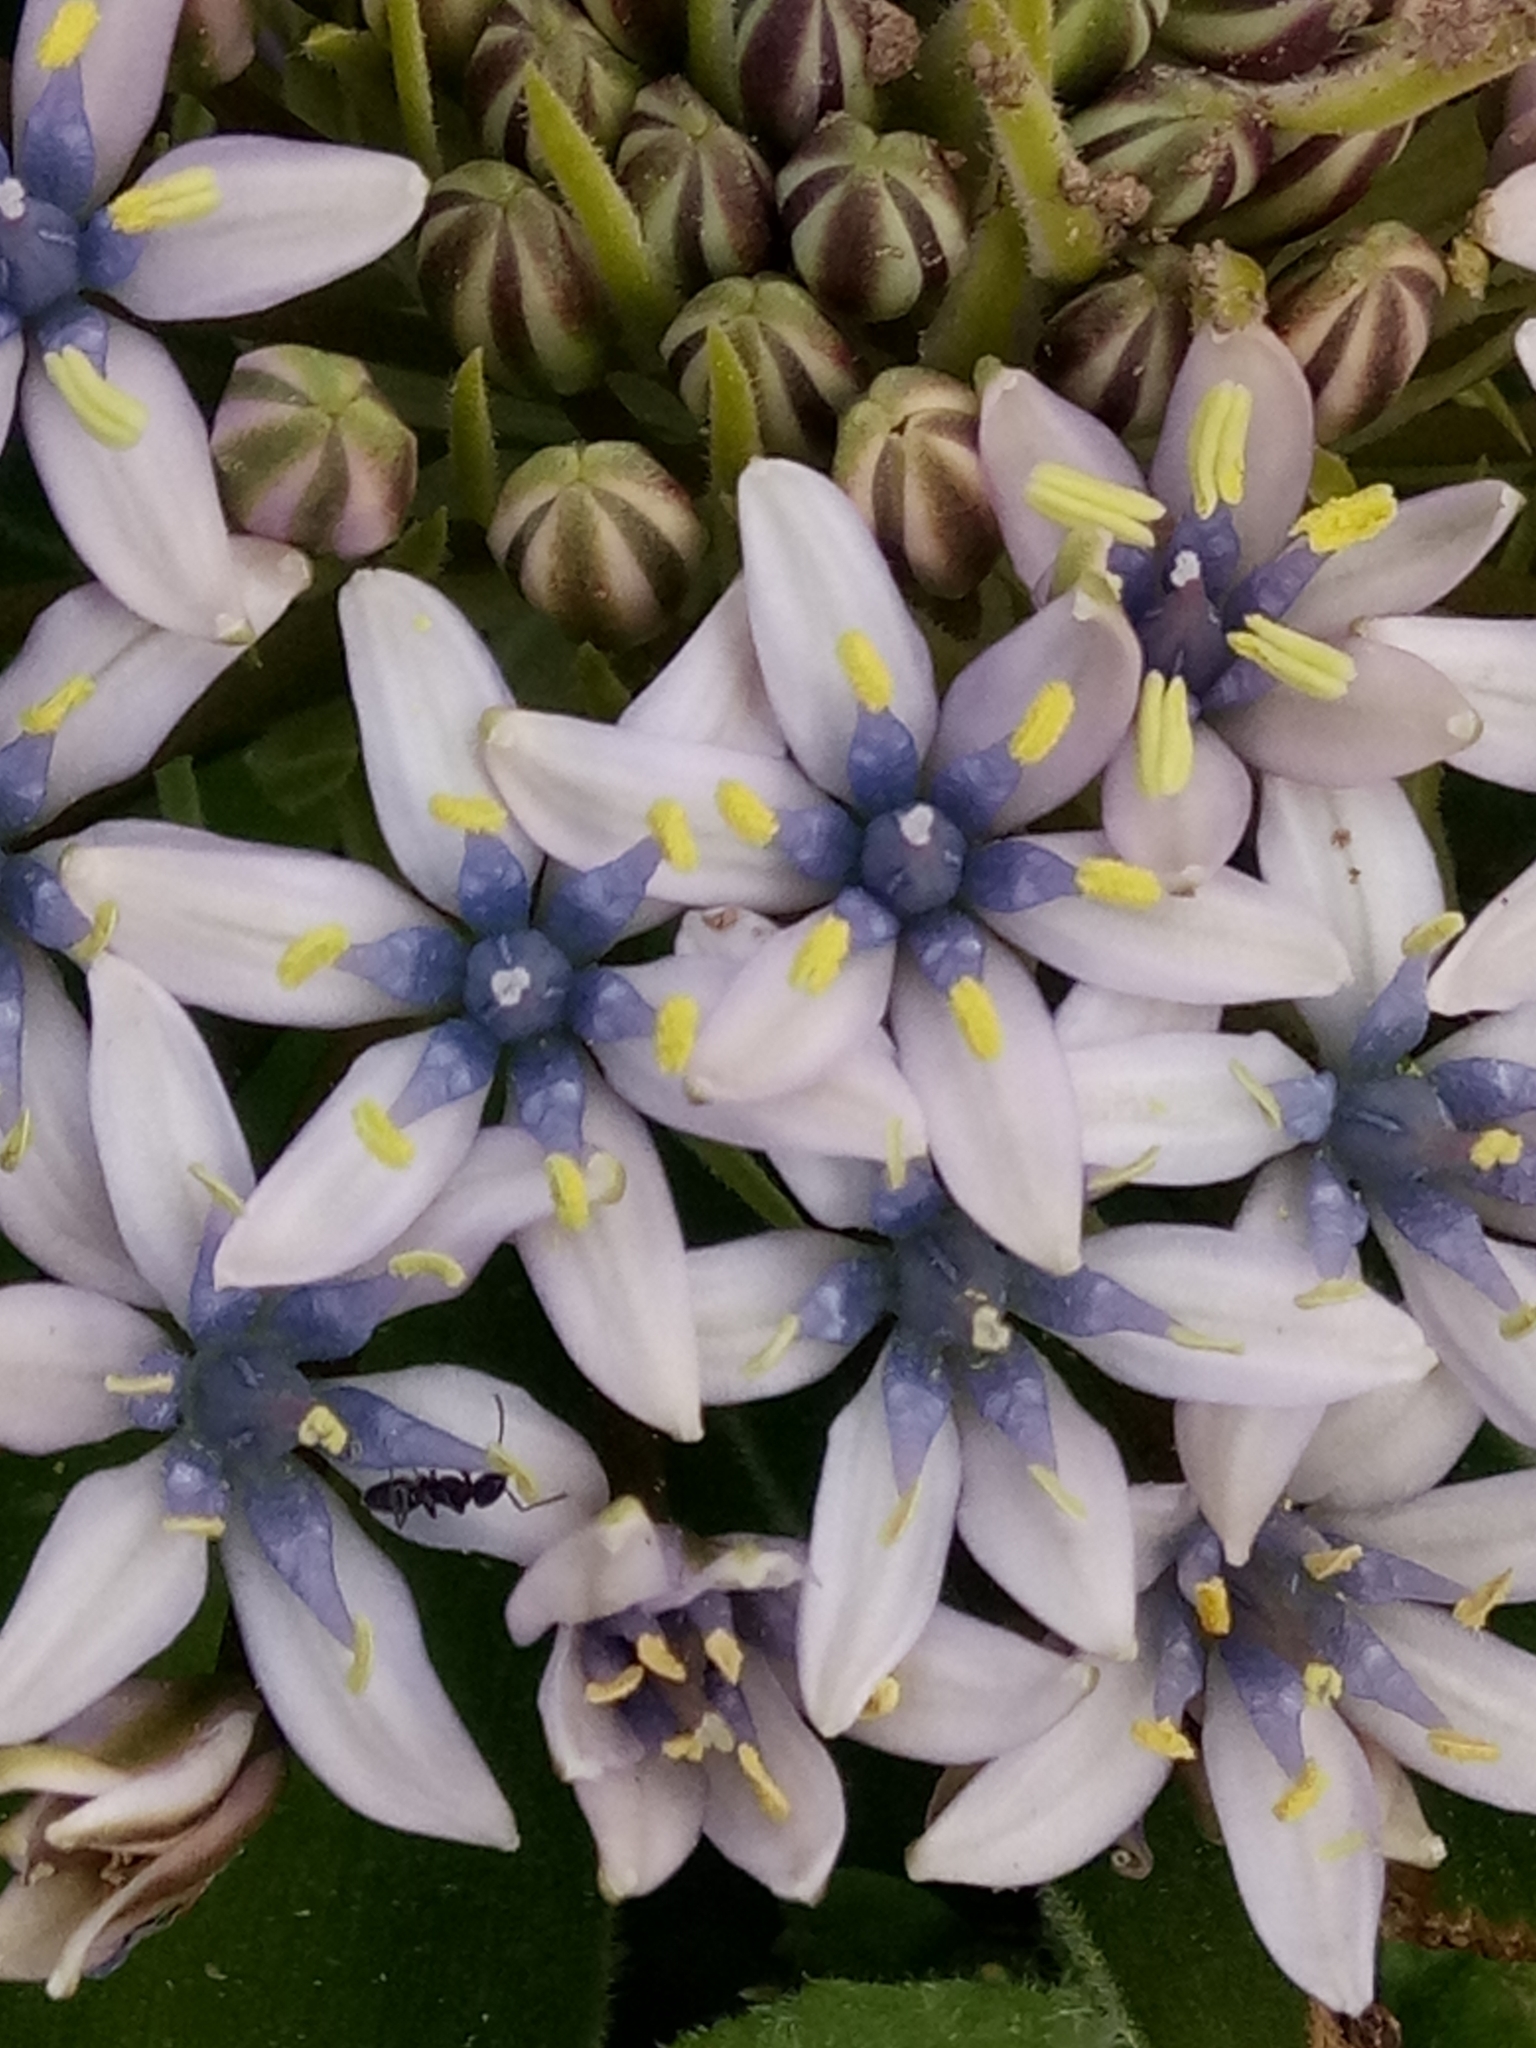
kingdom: Plantae
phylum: Tracheophyta
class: Liliopsida
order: Asparagales
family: Asparagaceae
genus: Scilla
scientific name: Scilla peruviana
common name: Portuguese squill
